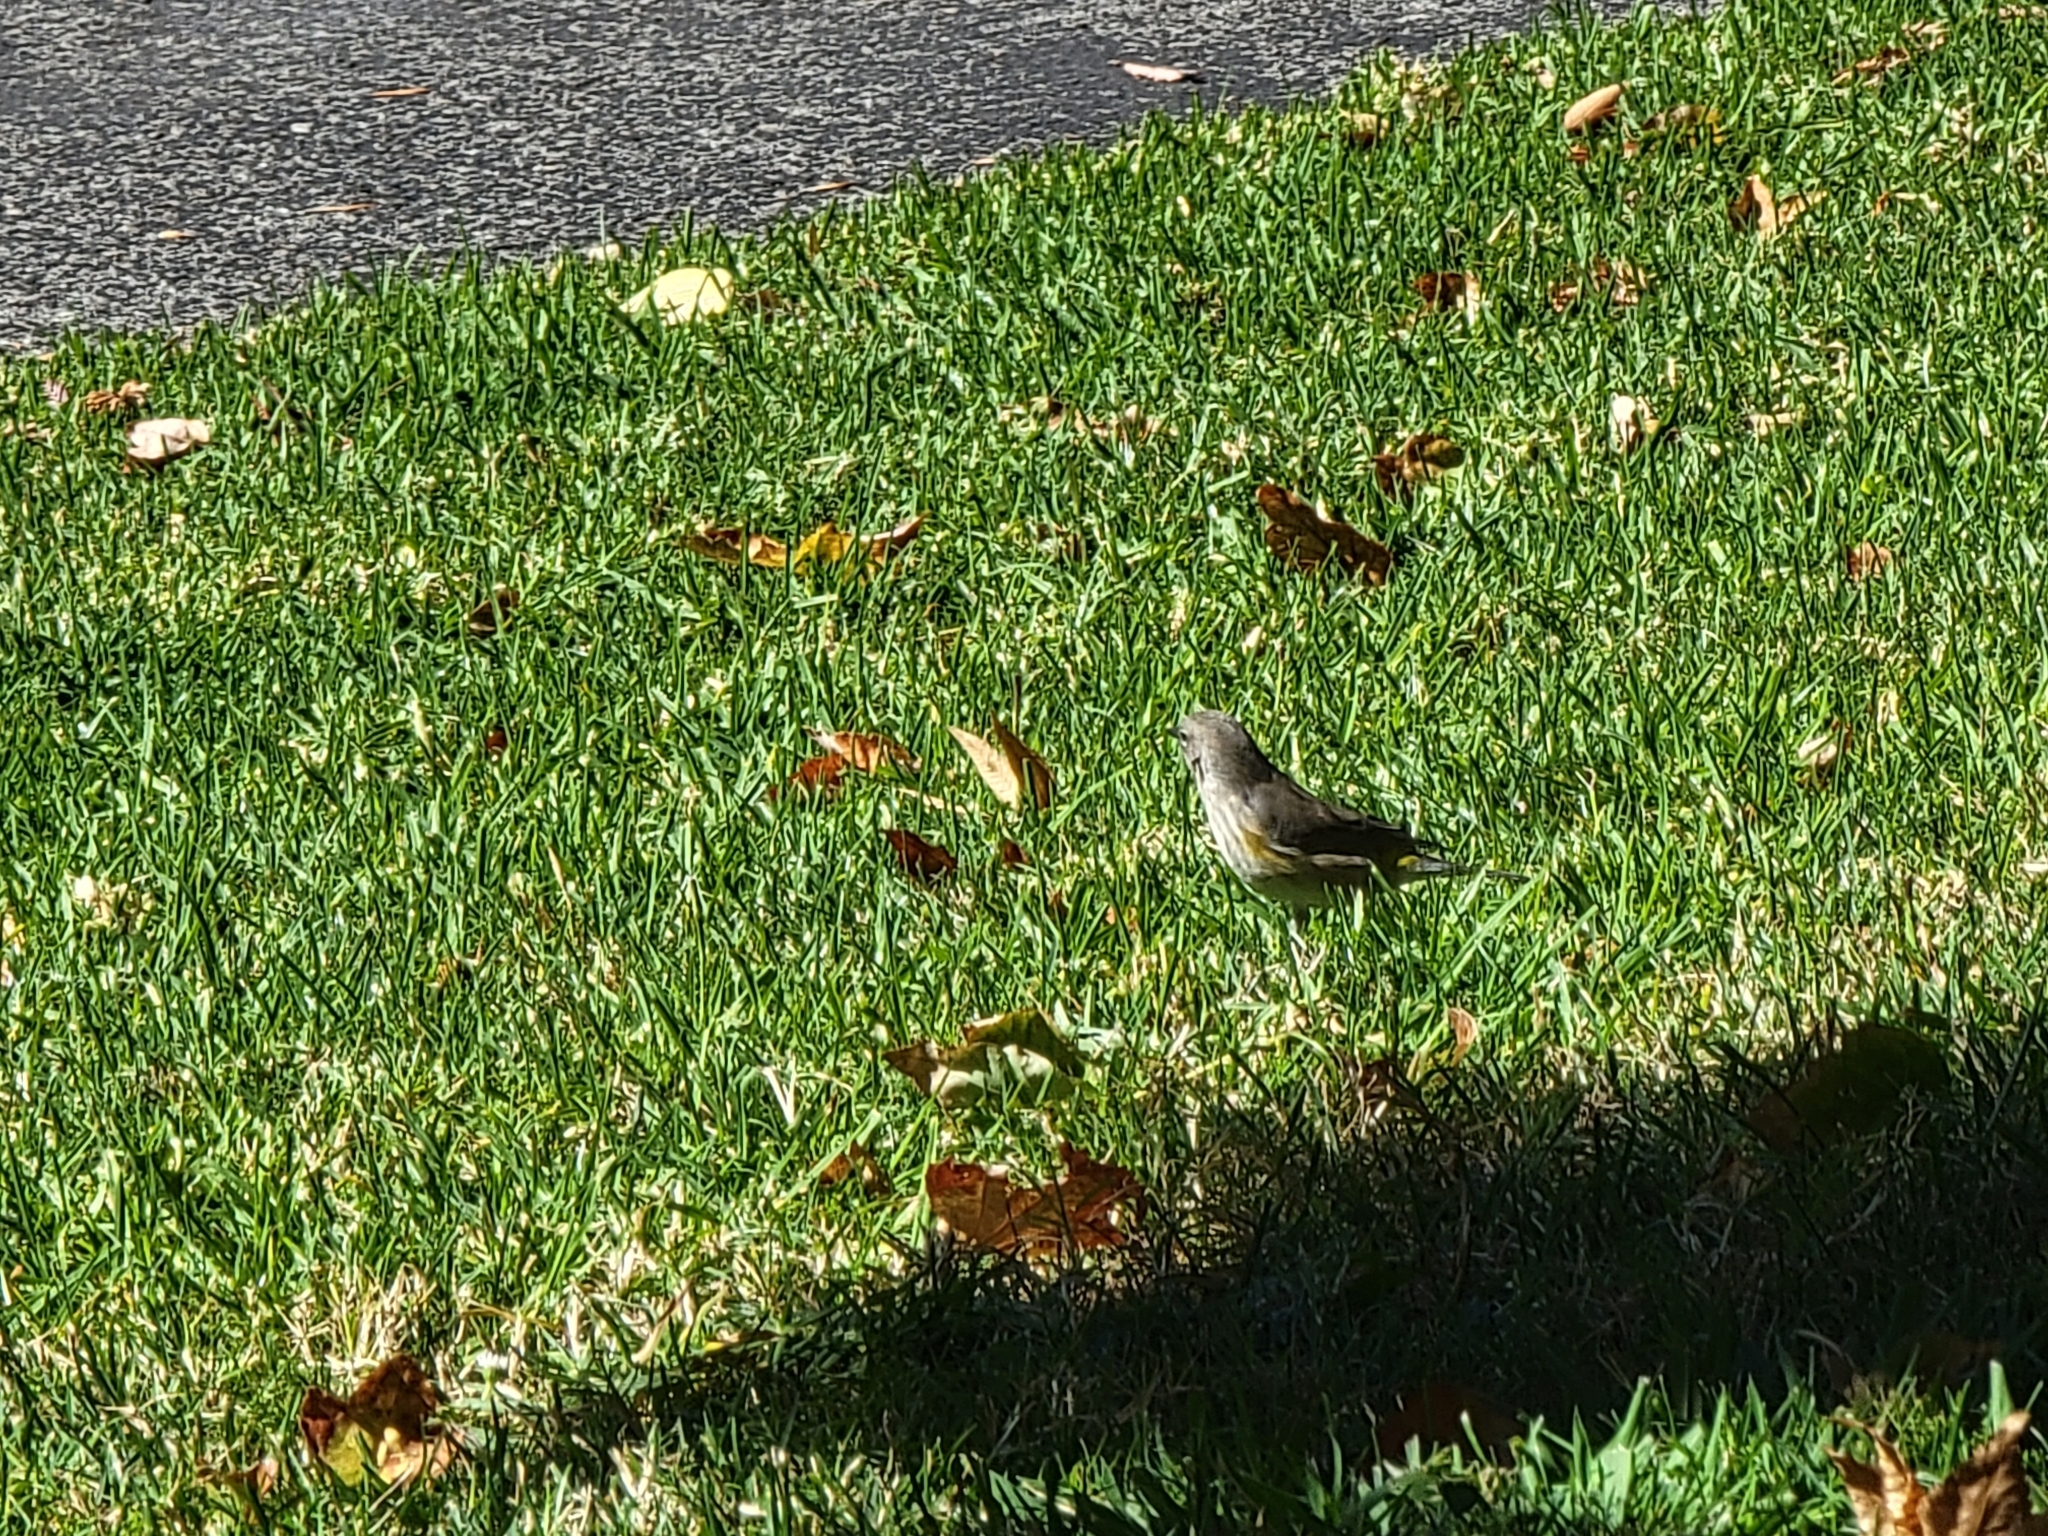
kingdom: Animalia
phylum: Chordata
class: Aves
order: Passeriformes
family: Parulidae
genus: Setophaga
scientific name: Setophaga coronata
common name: Myrtle warbler
